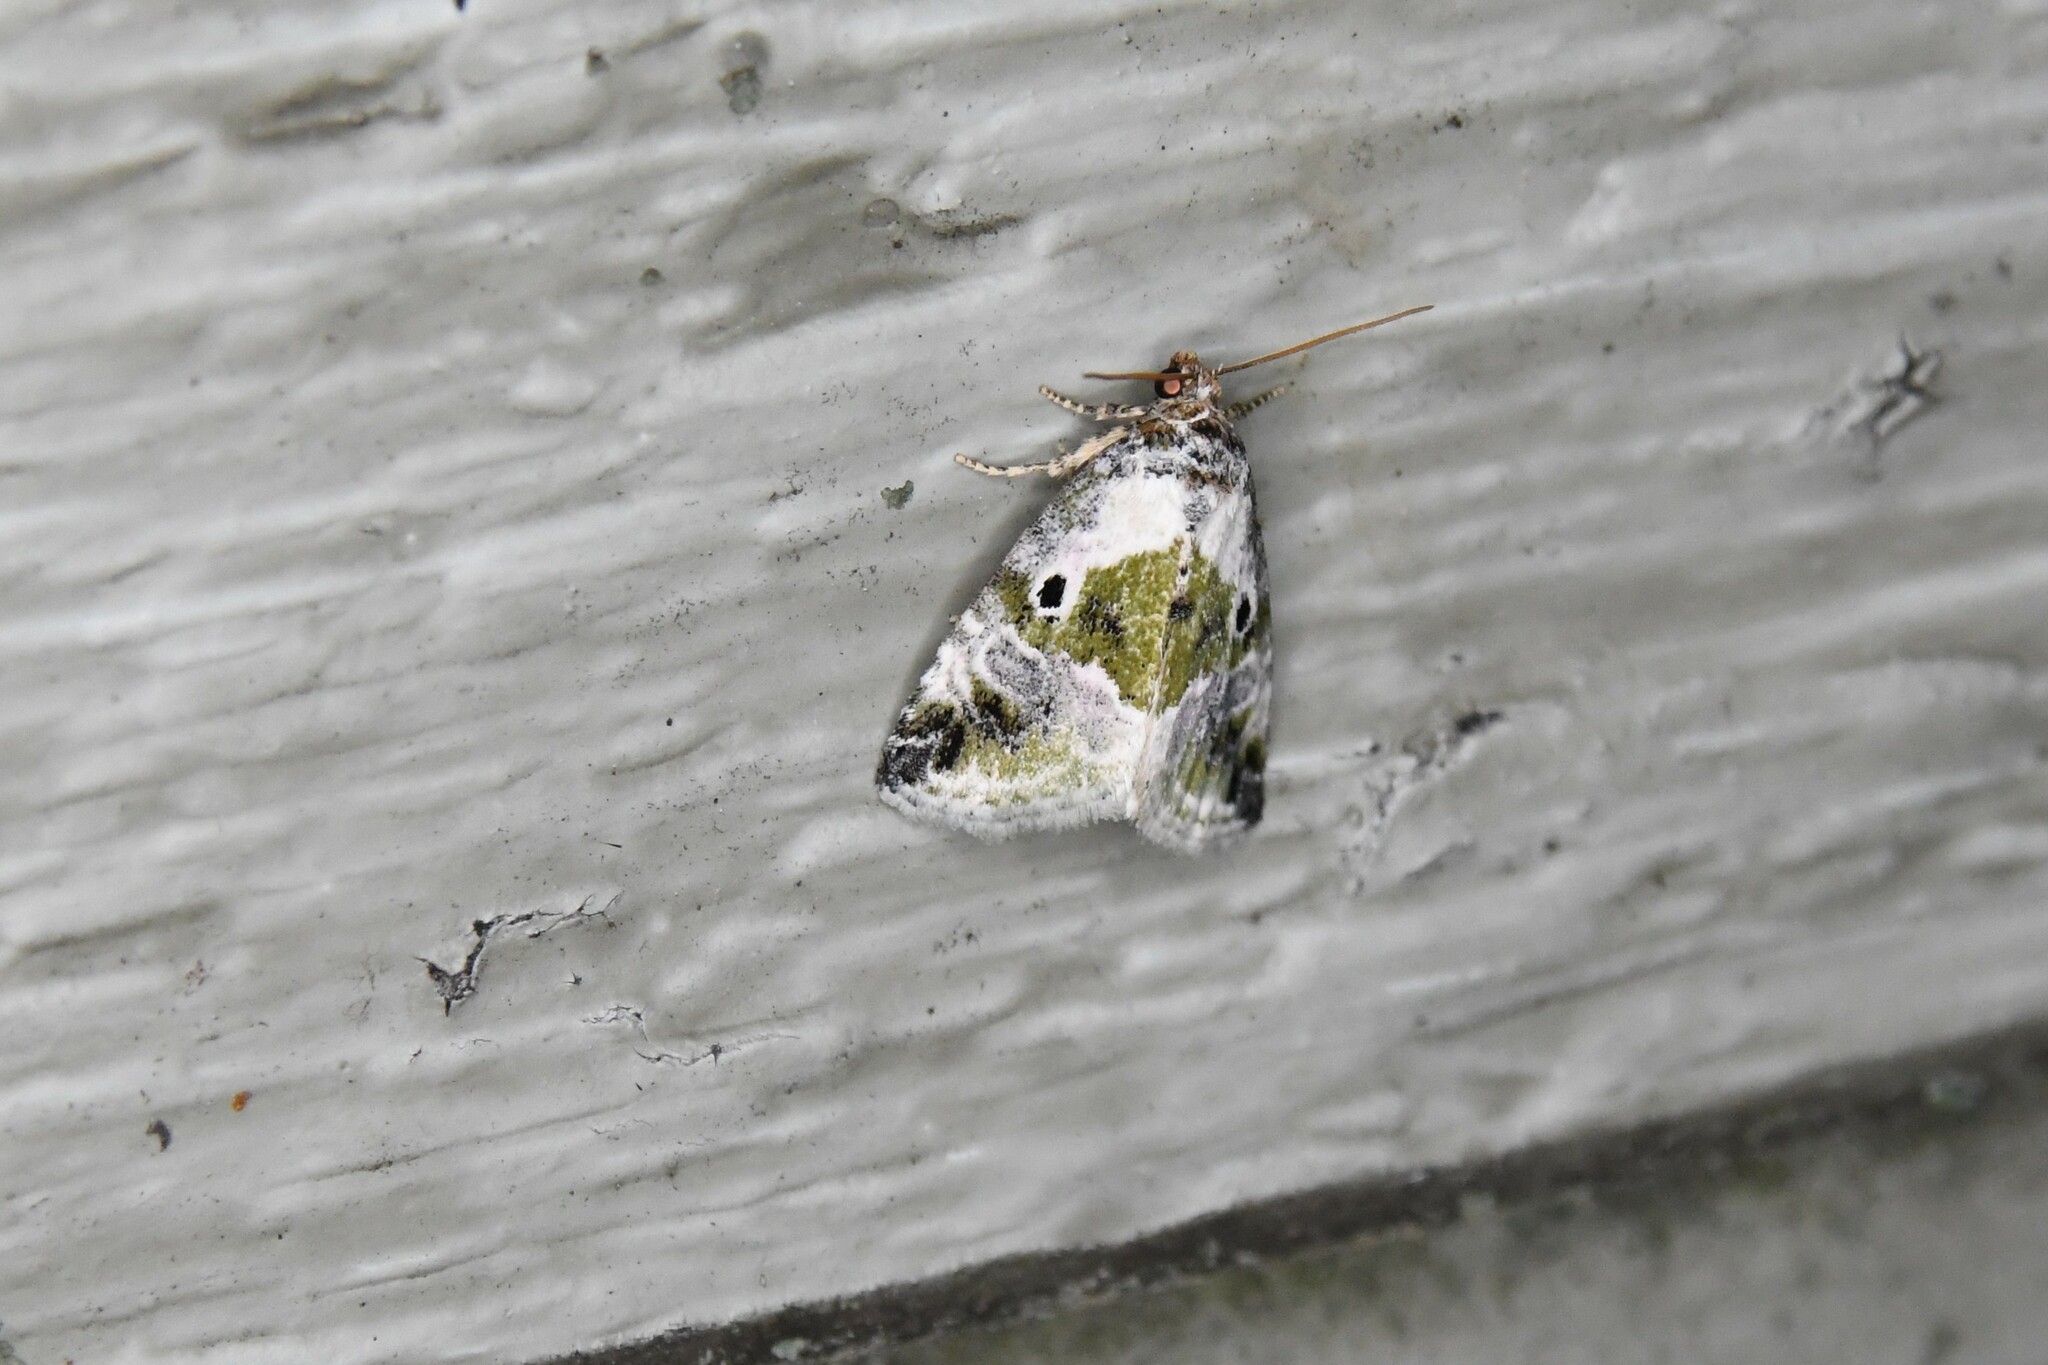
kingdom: Animalia
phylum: Arthropoda
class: Insecta
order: Lepidoptera
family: Noctuidae
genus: Maliattha
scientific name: Maliattha synochitis
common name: Black-dotted glyph
